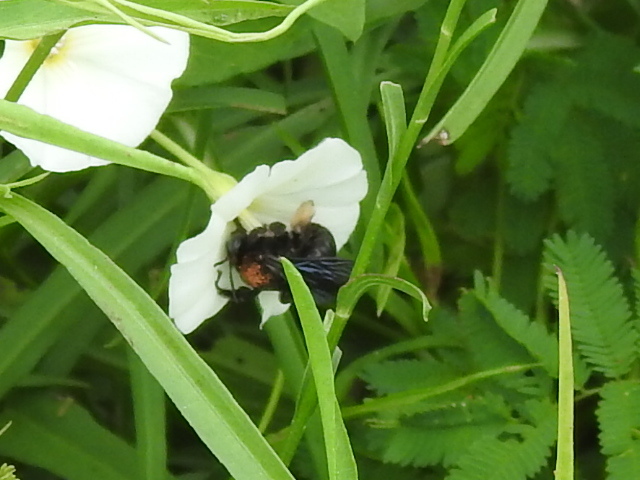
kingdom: Animalia
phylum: Arthropoda
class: Insecta
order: Hymenoptera
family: Apidae
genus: Melissodes
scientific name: Melissodes bimaculatus
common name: Two-spotted long-horned bee
